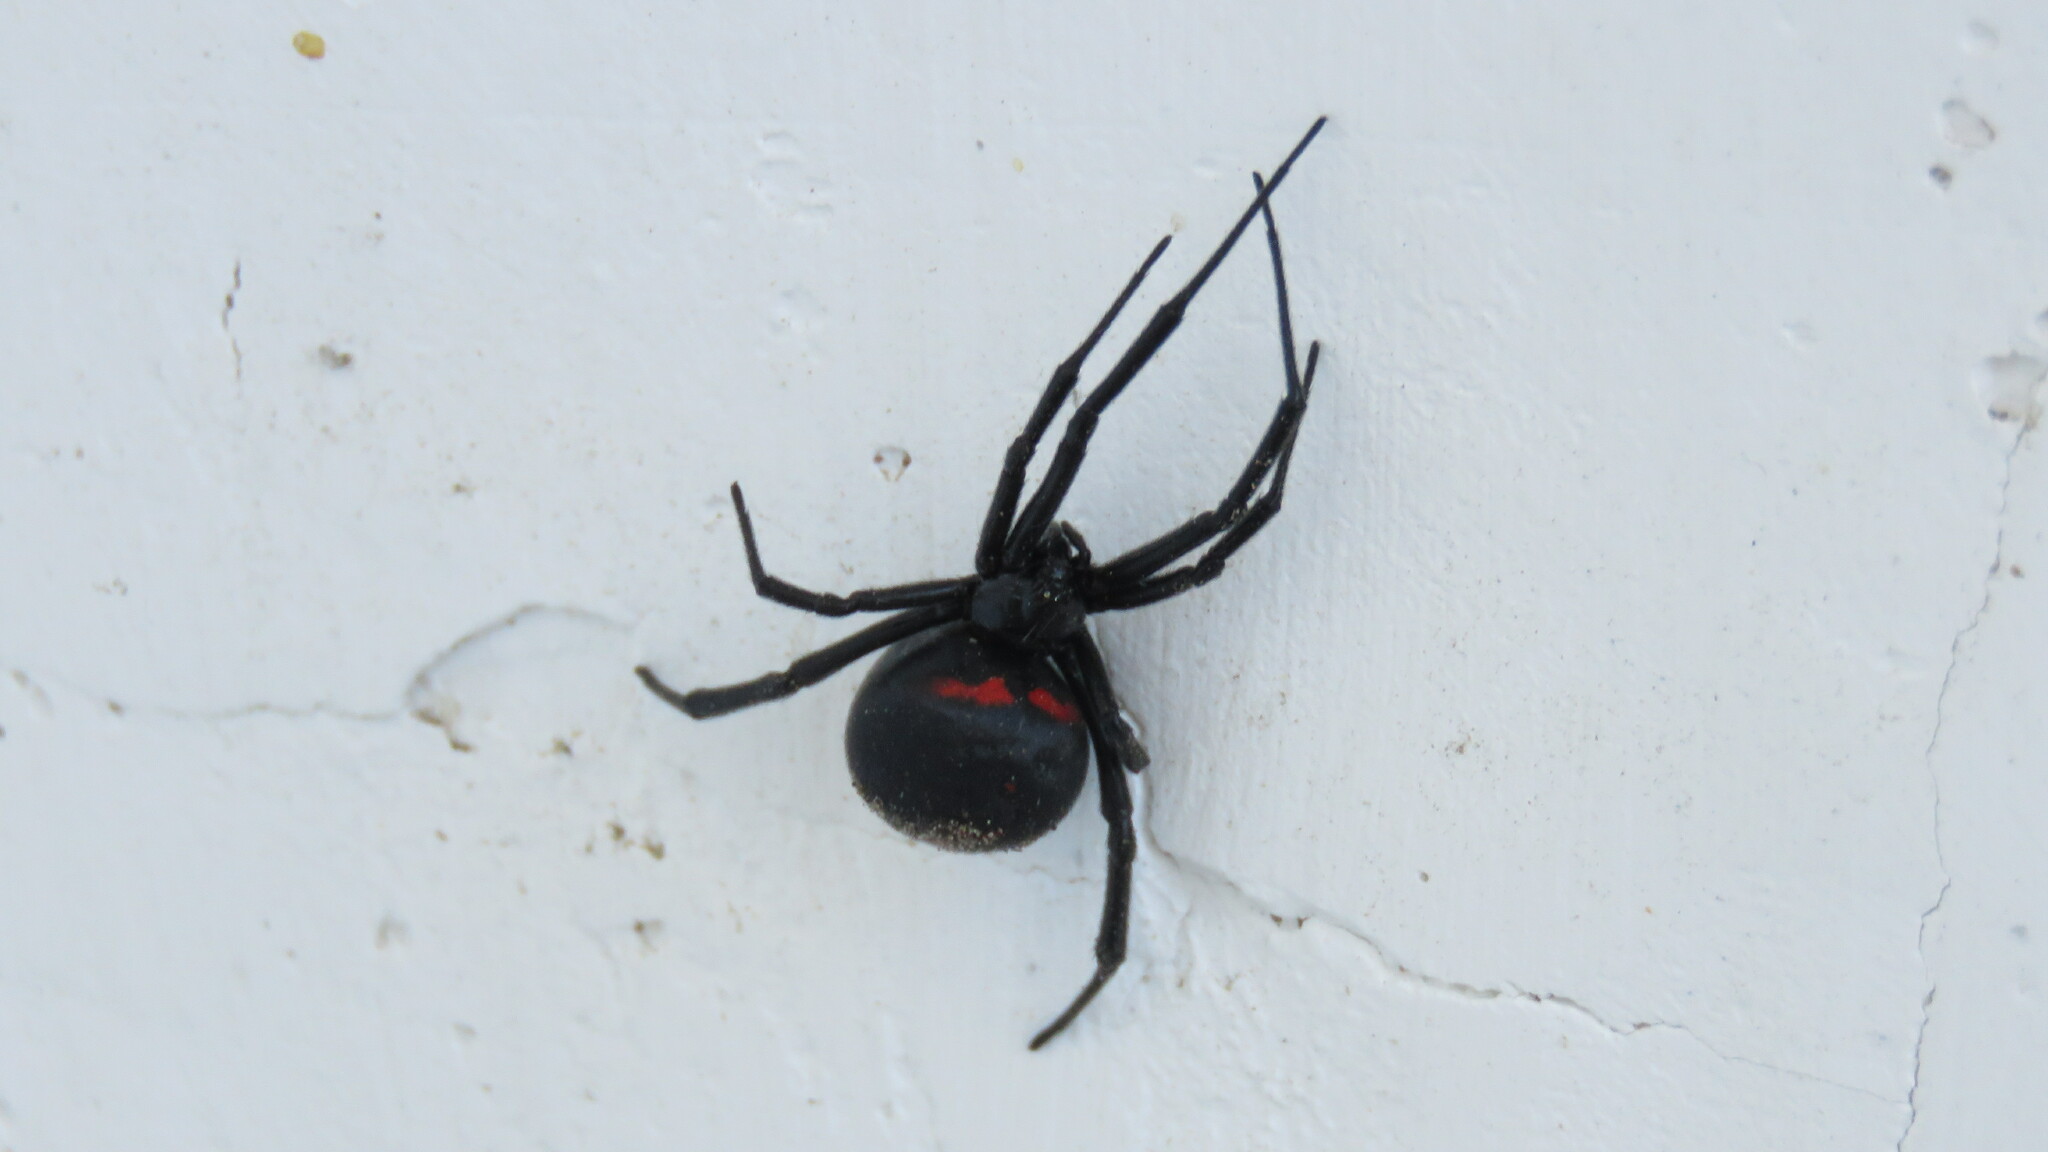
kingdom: Animalia
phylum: Arthropoda
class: Arachnida
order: Araneae
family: Theridiidae
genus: Latrodectus
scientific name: Latrodectus mirabilis
